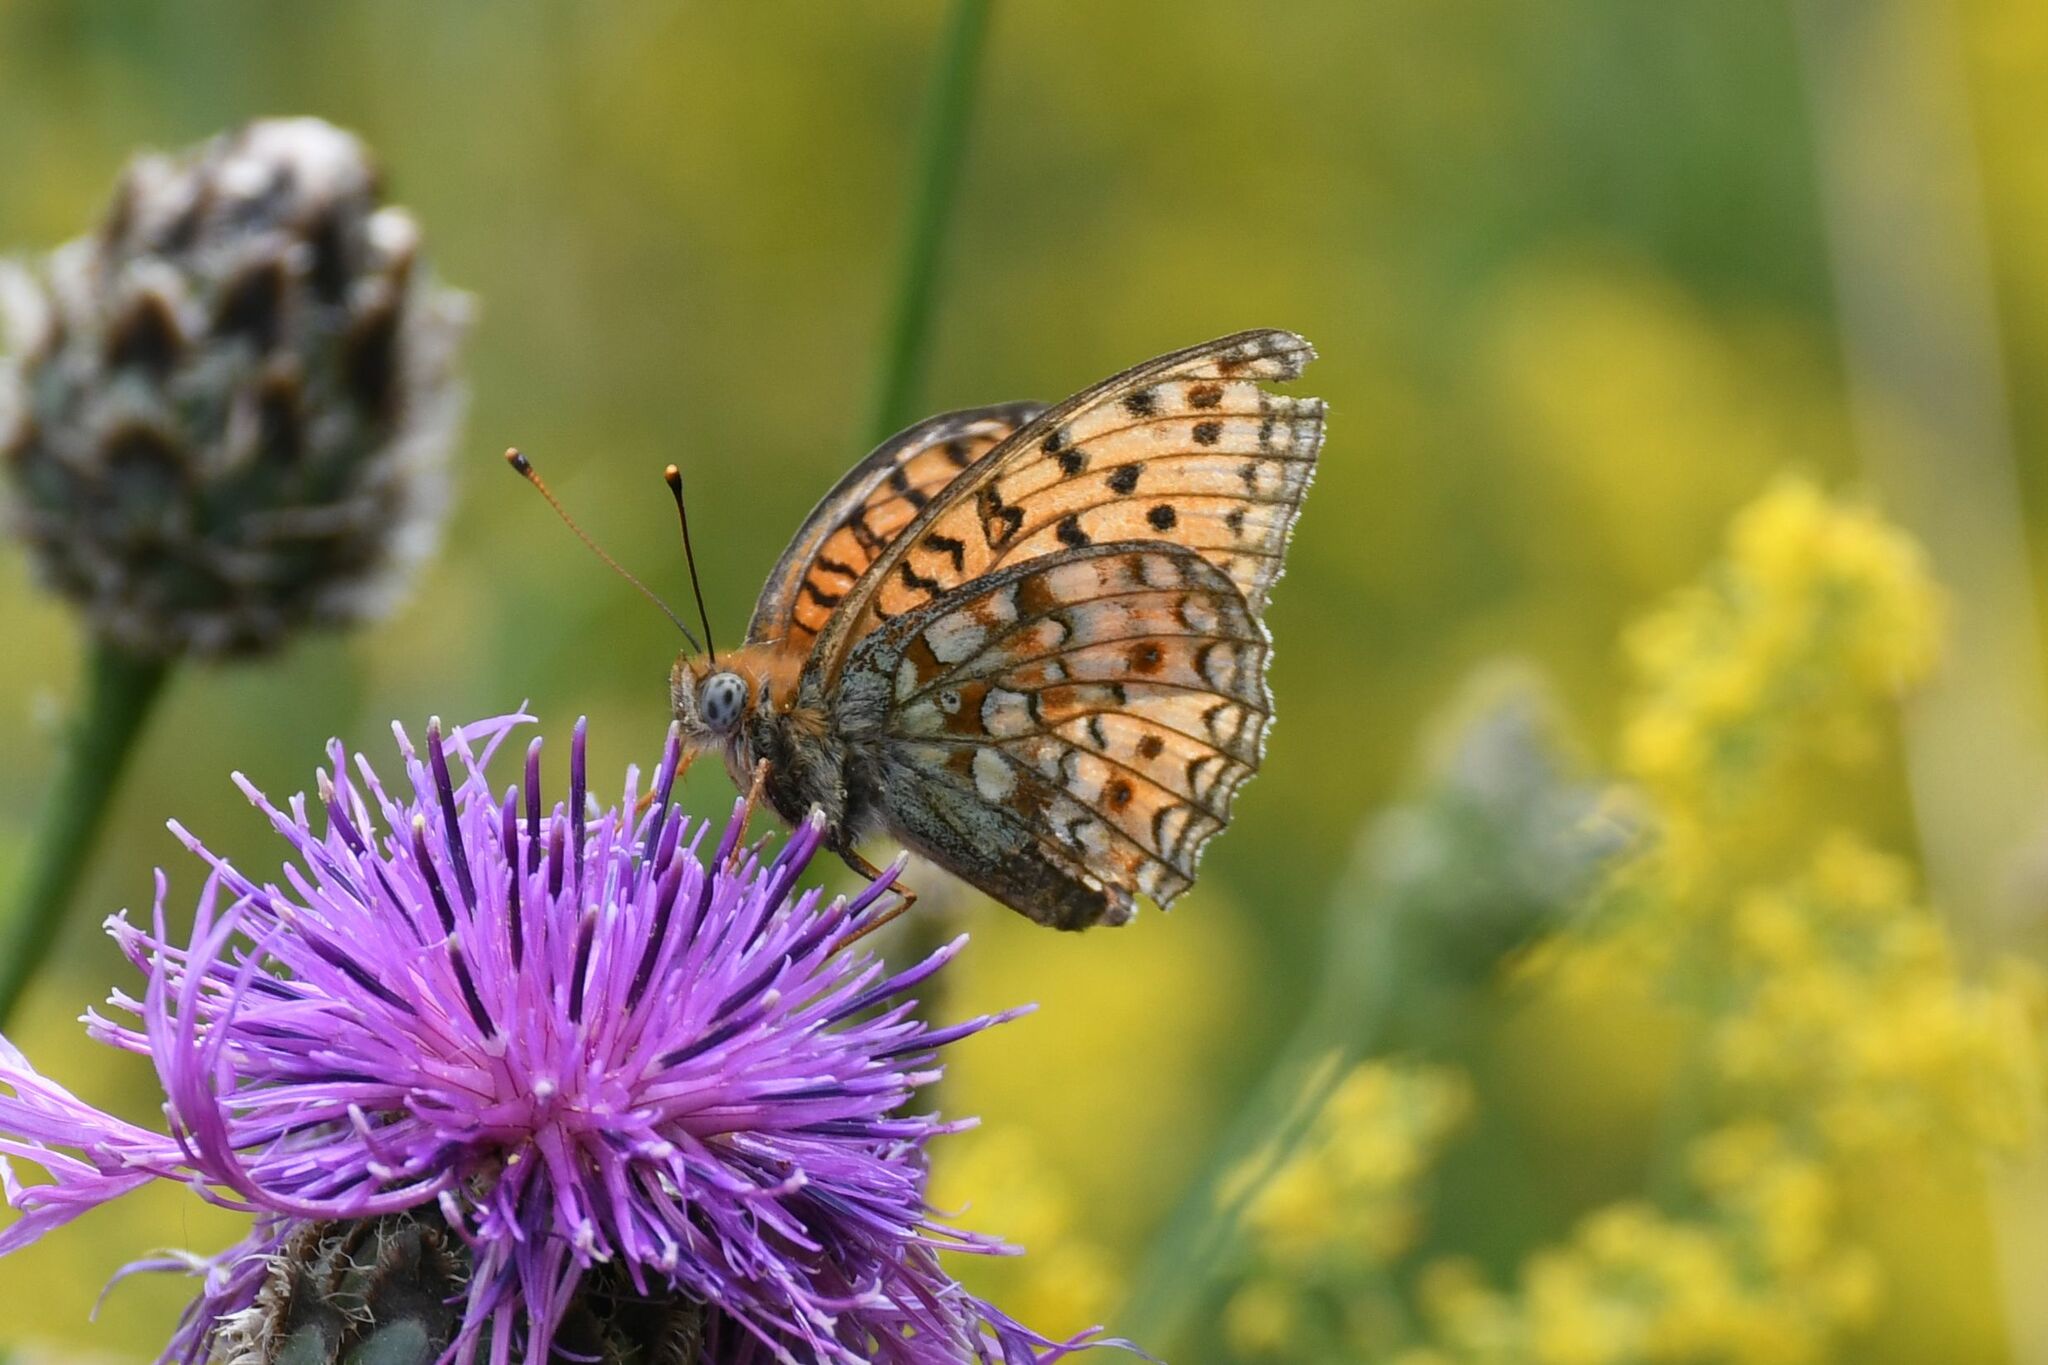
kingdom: Animalia
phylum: Arthropoda
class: Insecta
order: Lepidoptera
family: Nymphalidae
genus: Fabriciana
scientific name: Fabriciana niobe
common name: Niobe fritillary
